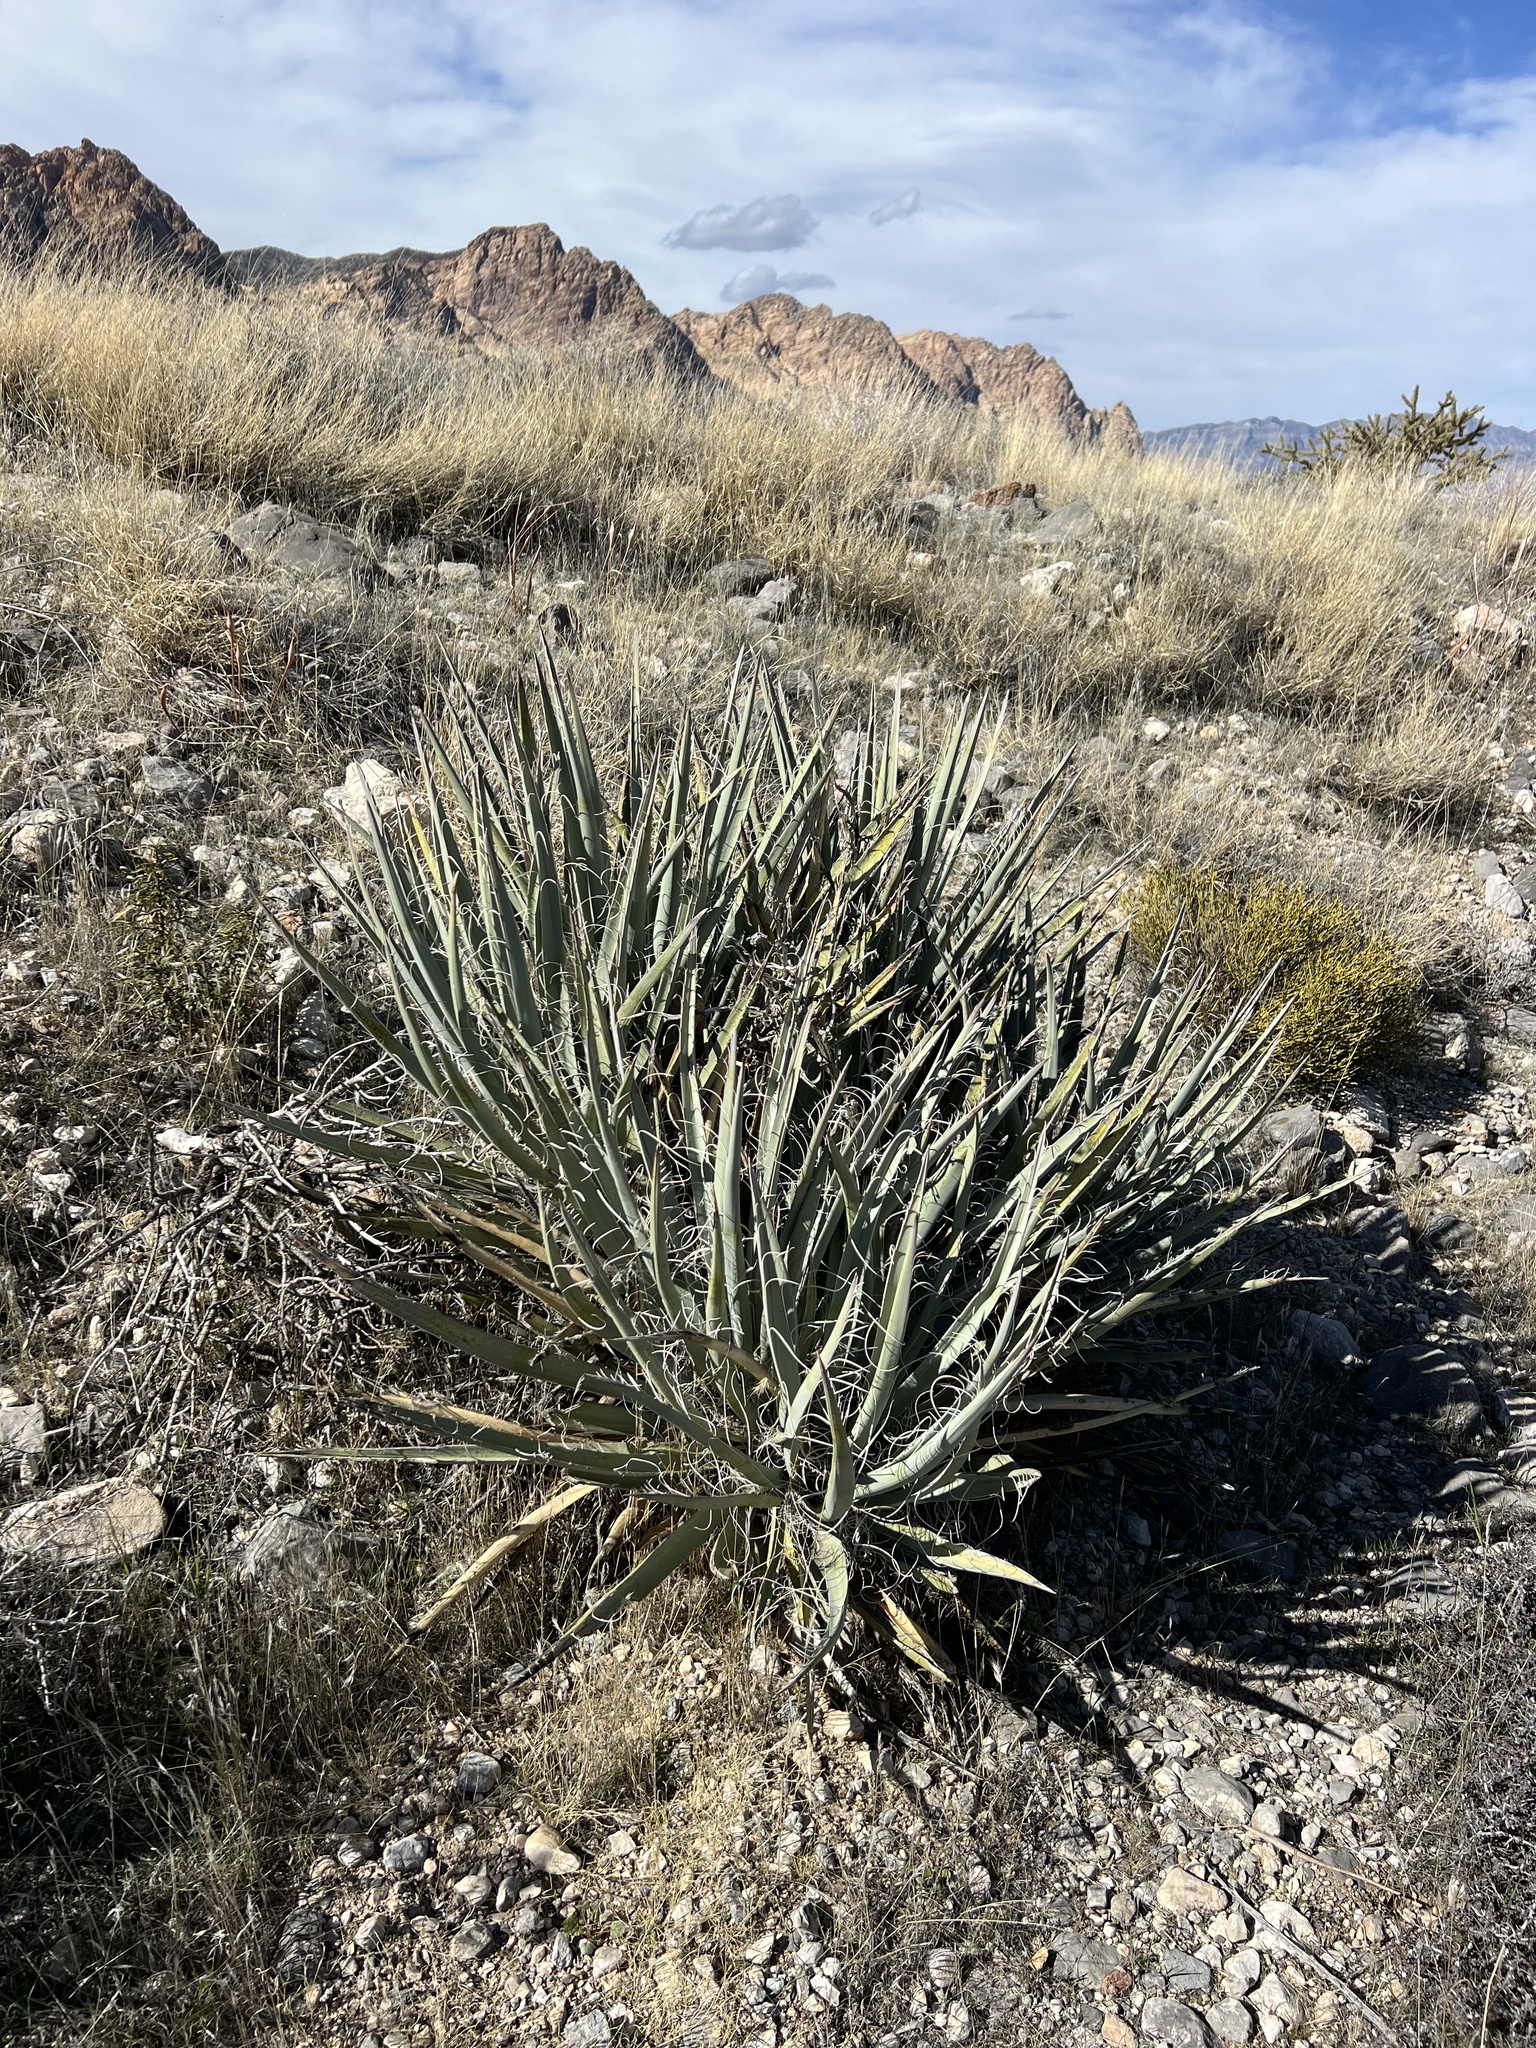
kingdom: Plantae
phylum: Tracheophyta
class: Liliopsida
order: Asparagales
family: Asparagaceae
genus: Yucca
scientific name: Yucca baccata
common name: Banana yucca
